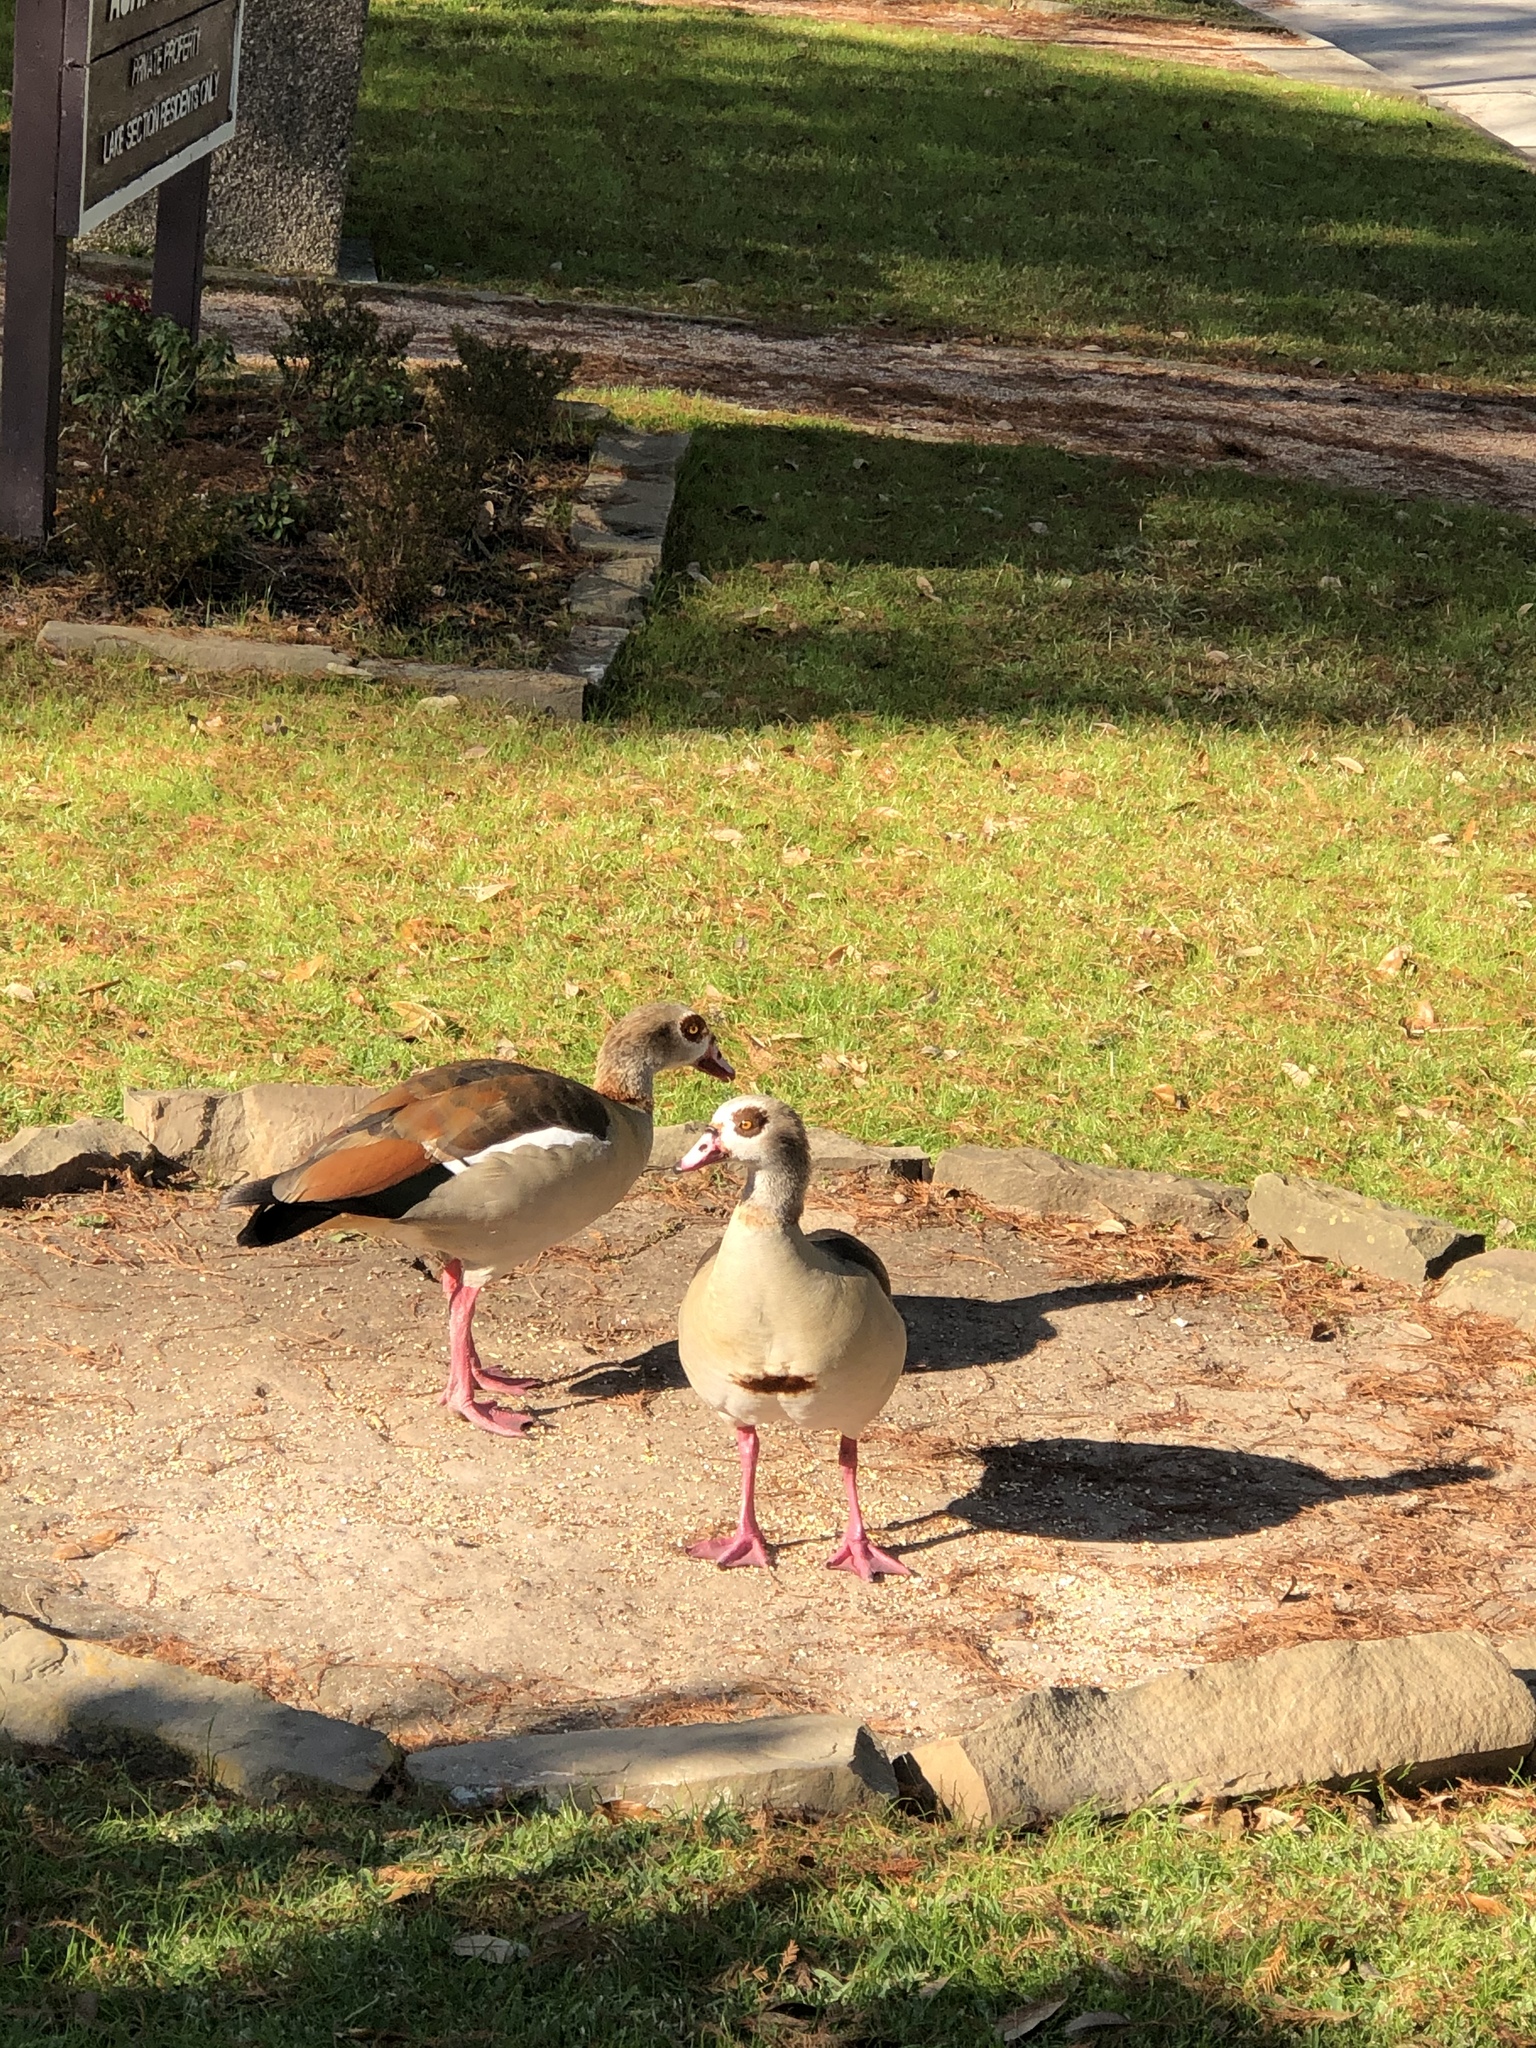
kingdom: Animalia
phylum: Chordata
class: Aves
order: Anseriformes
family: Anatidae
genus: Alopochen
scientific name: Alopochen aegyptiaca
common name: Egyptian goose
